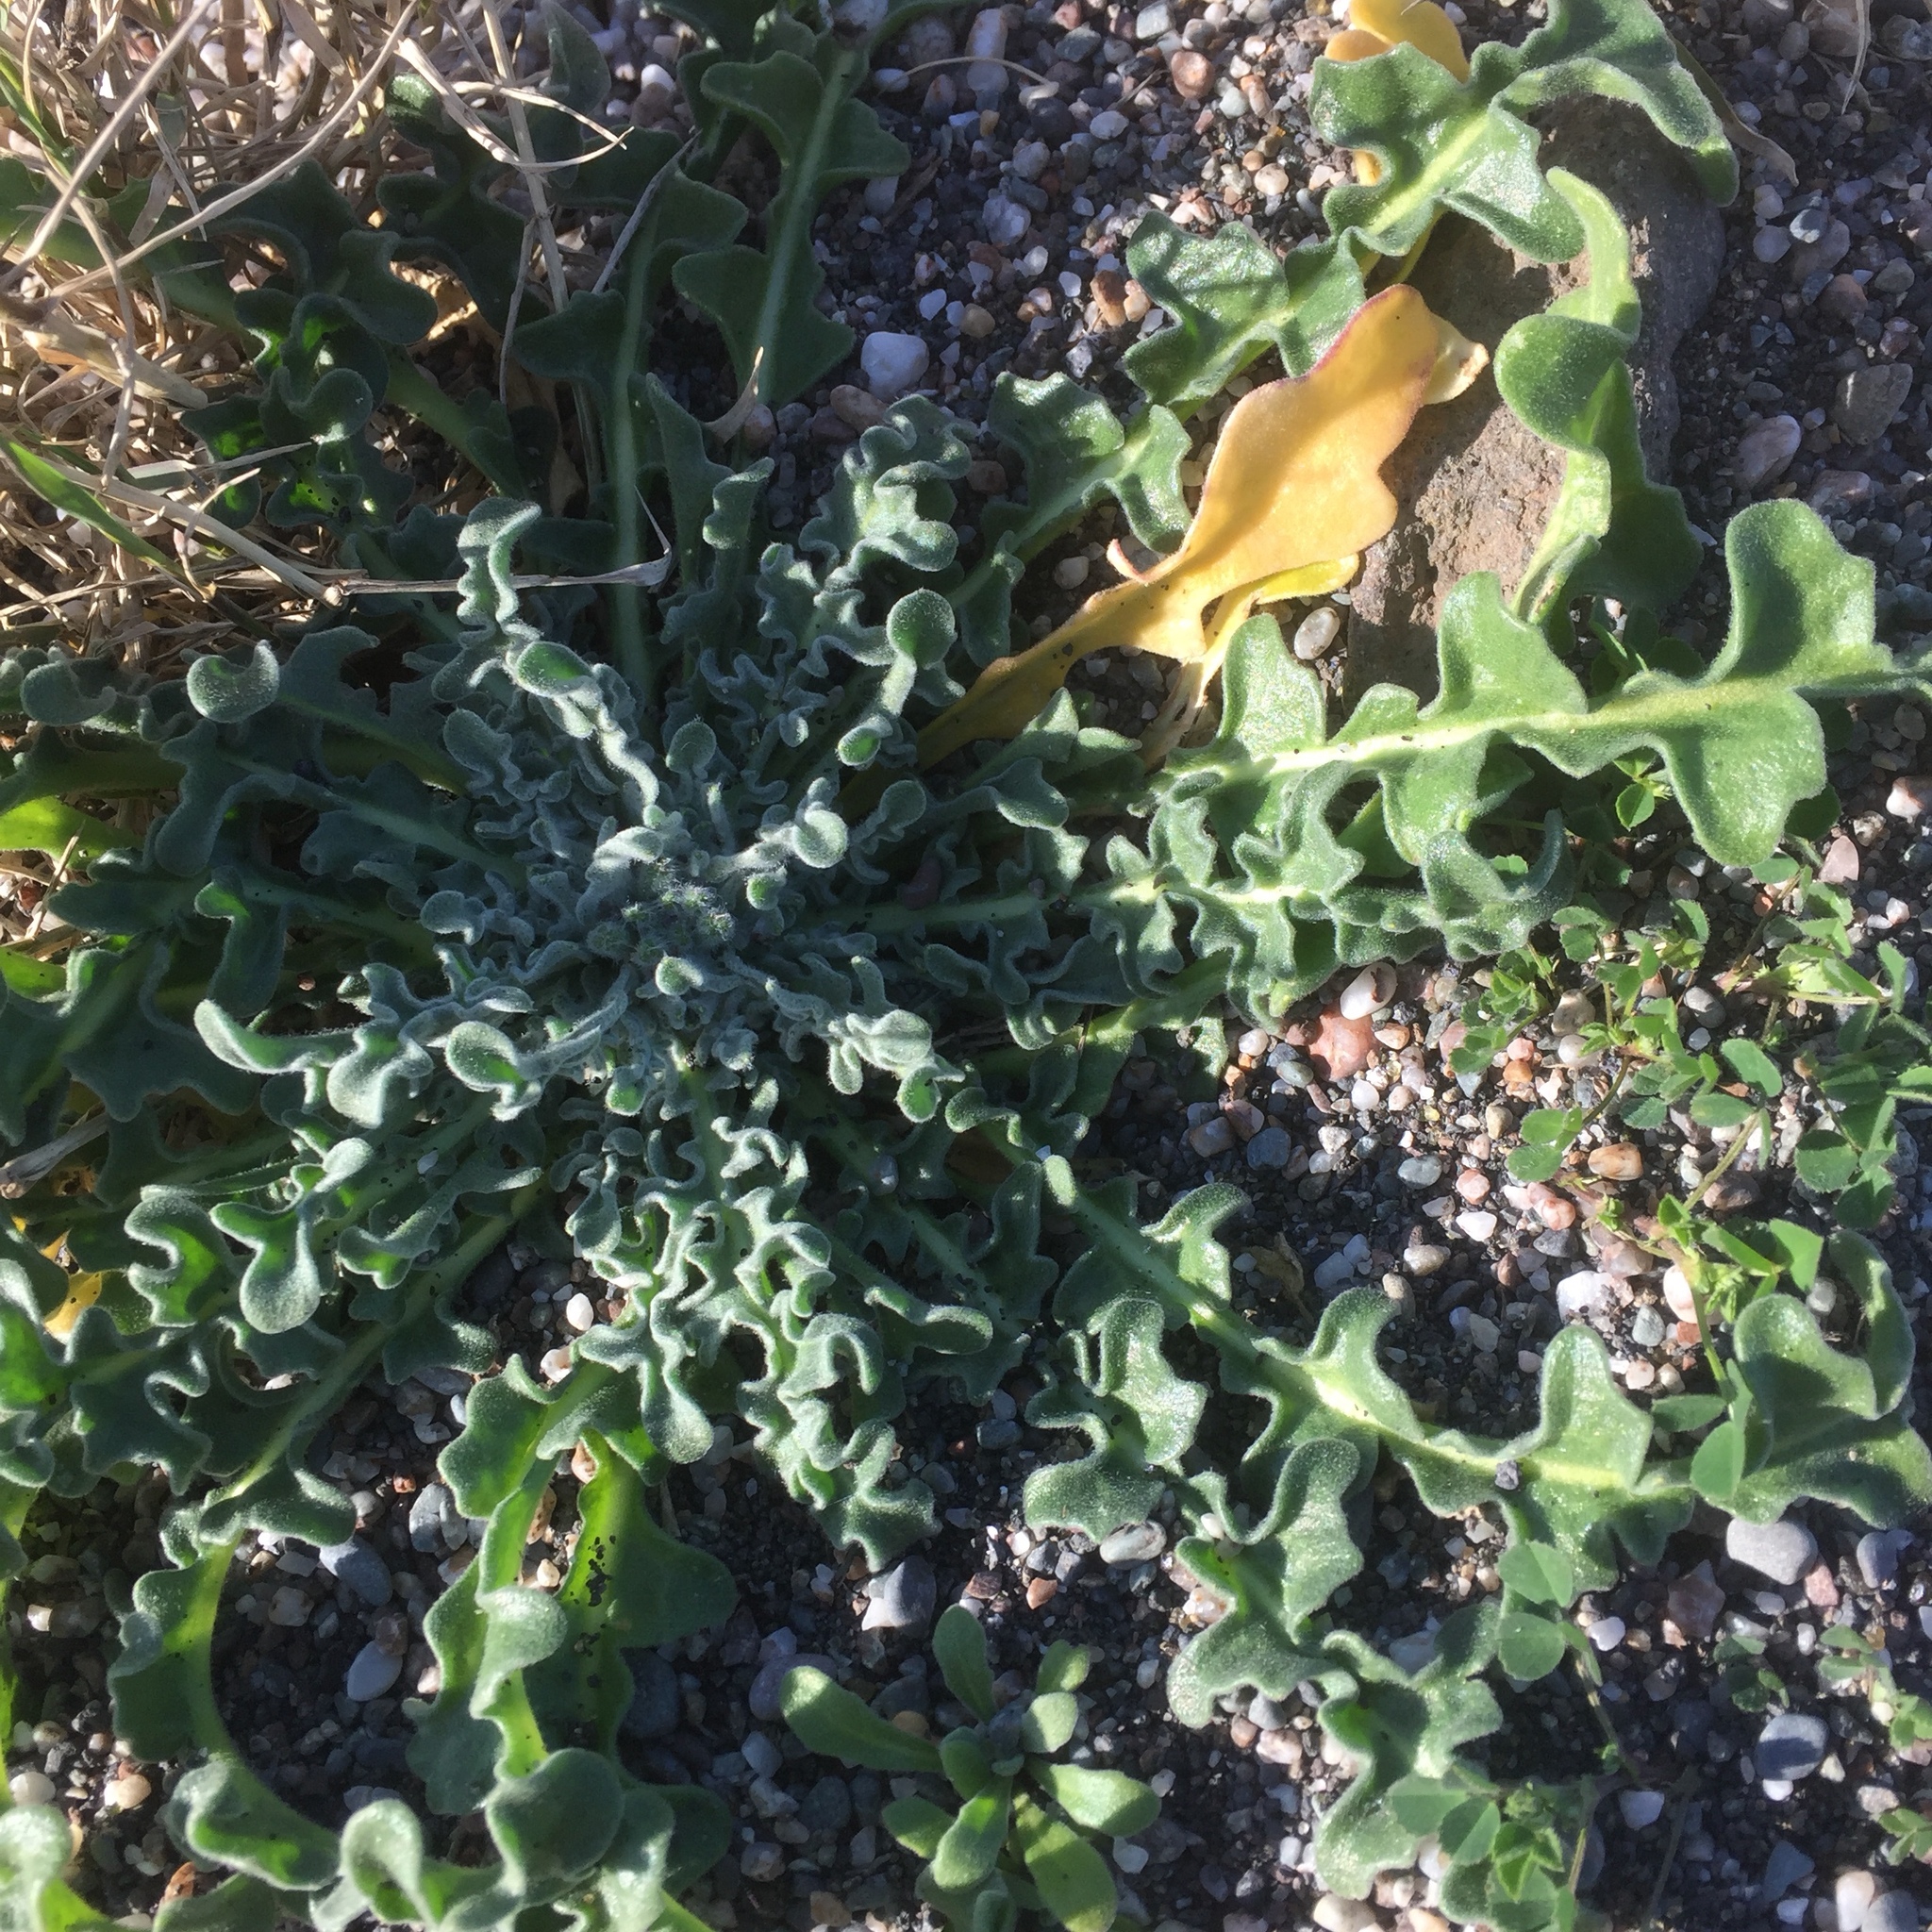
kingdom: Plantae
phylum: Tracheophyta
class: Magnoliopsida
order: Ranunculales
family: Papaveraceae
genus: Glaucium
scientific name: Glaucium flavum
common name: Yellow horned-poppy
